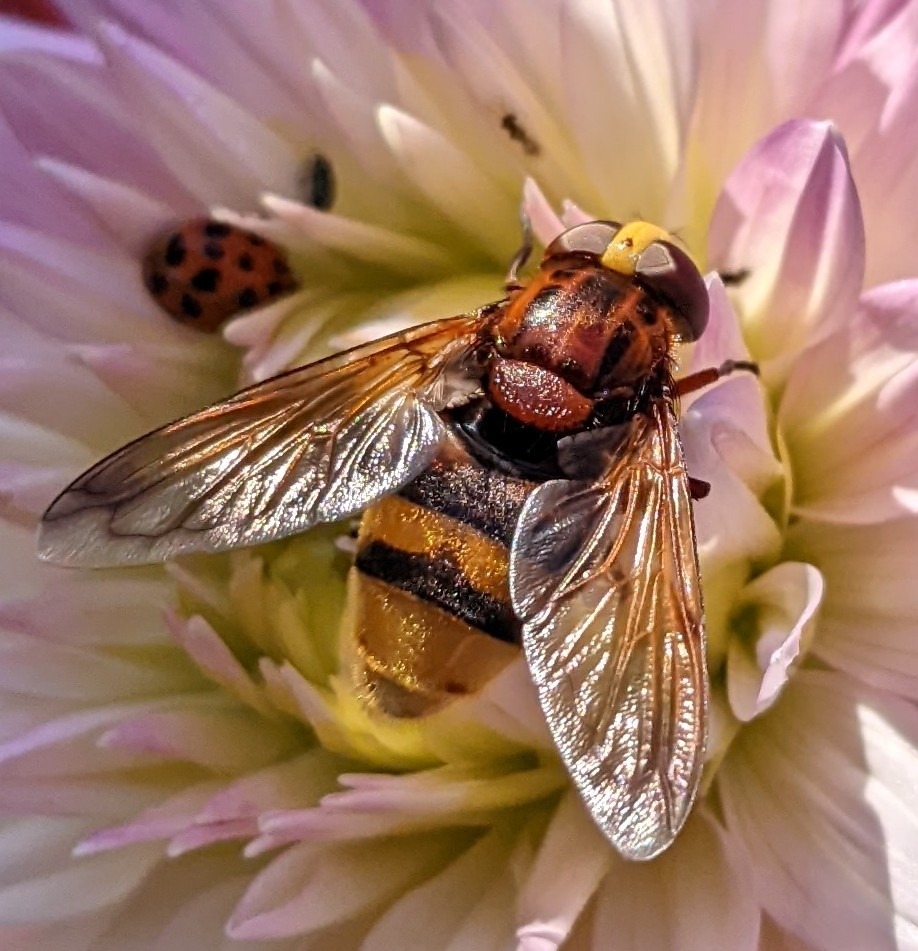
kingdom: Animalia
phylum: Arthropoda
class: Insecta
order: Diptera
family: Syrphidae
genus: Volucella
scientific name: Volucella zonaria
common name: Hornet hoverfly
